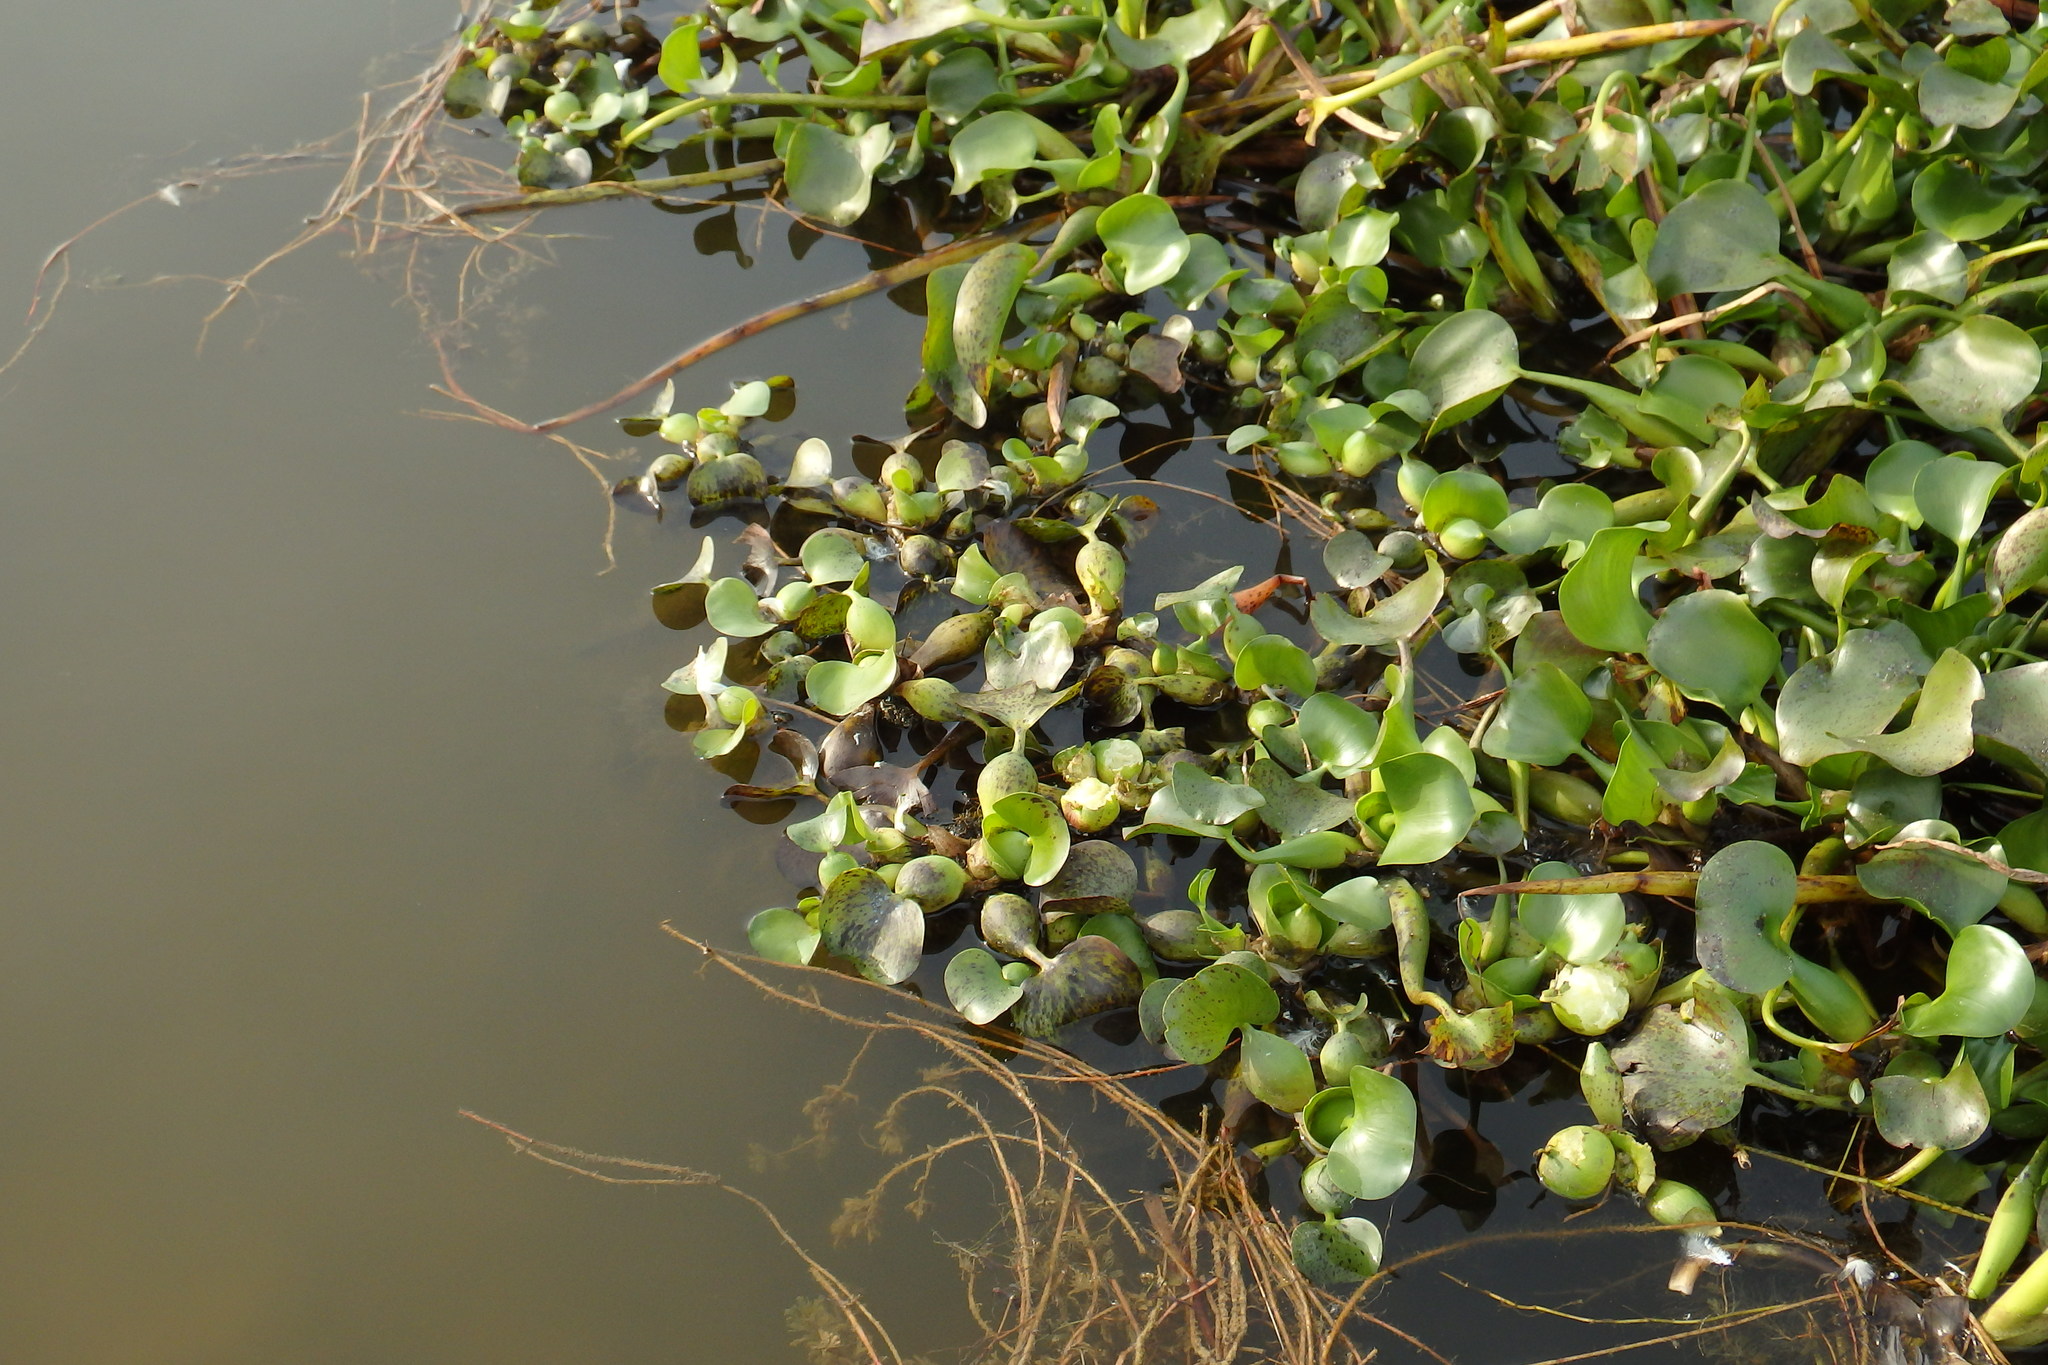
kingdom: Plantae
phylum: Tracheophyta
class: Liliopsida
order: Commelinales
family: Pontederiaceae
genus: Pontederia
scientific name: Pontederia crassipes
